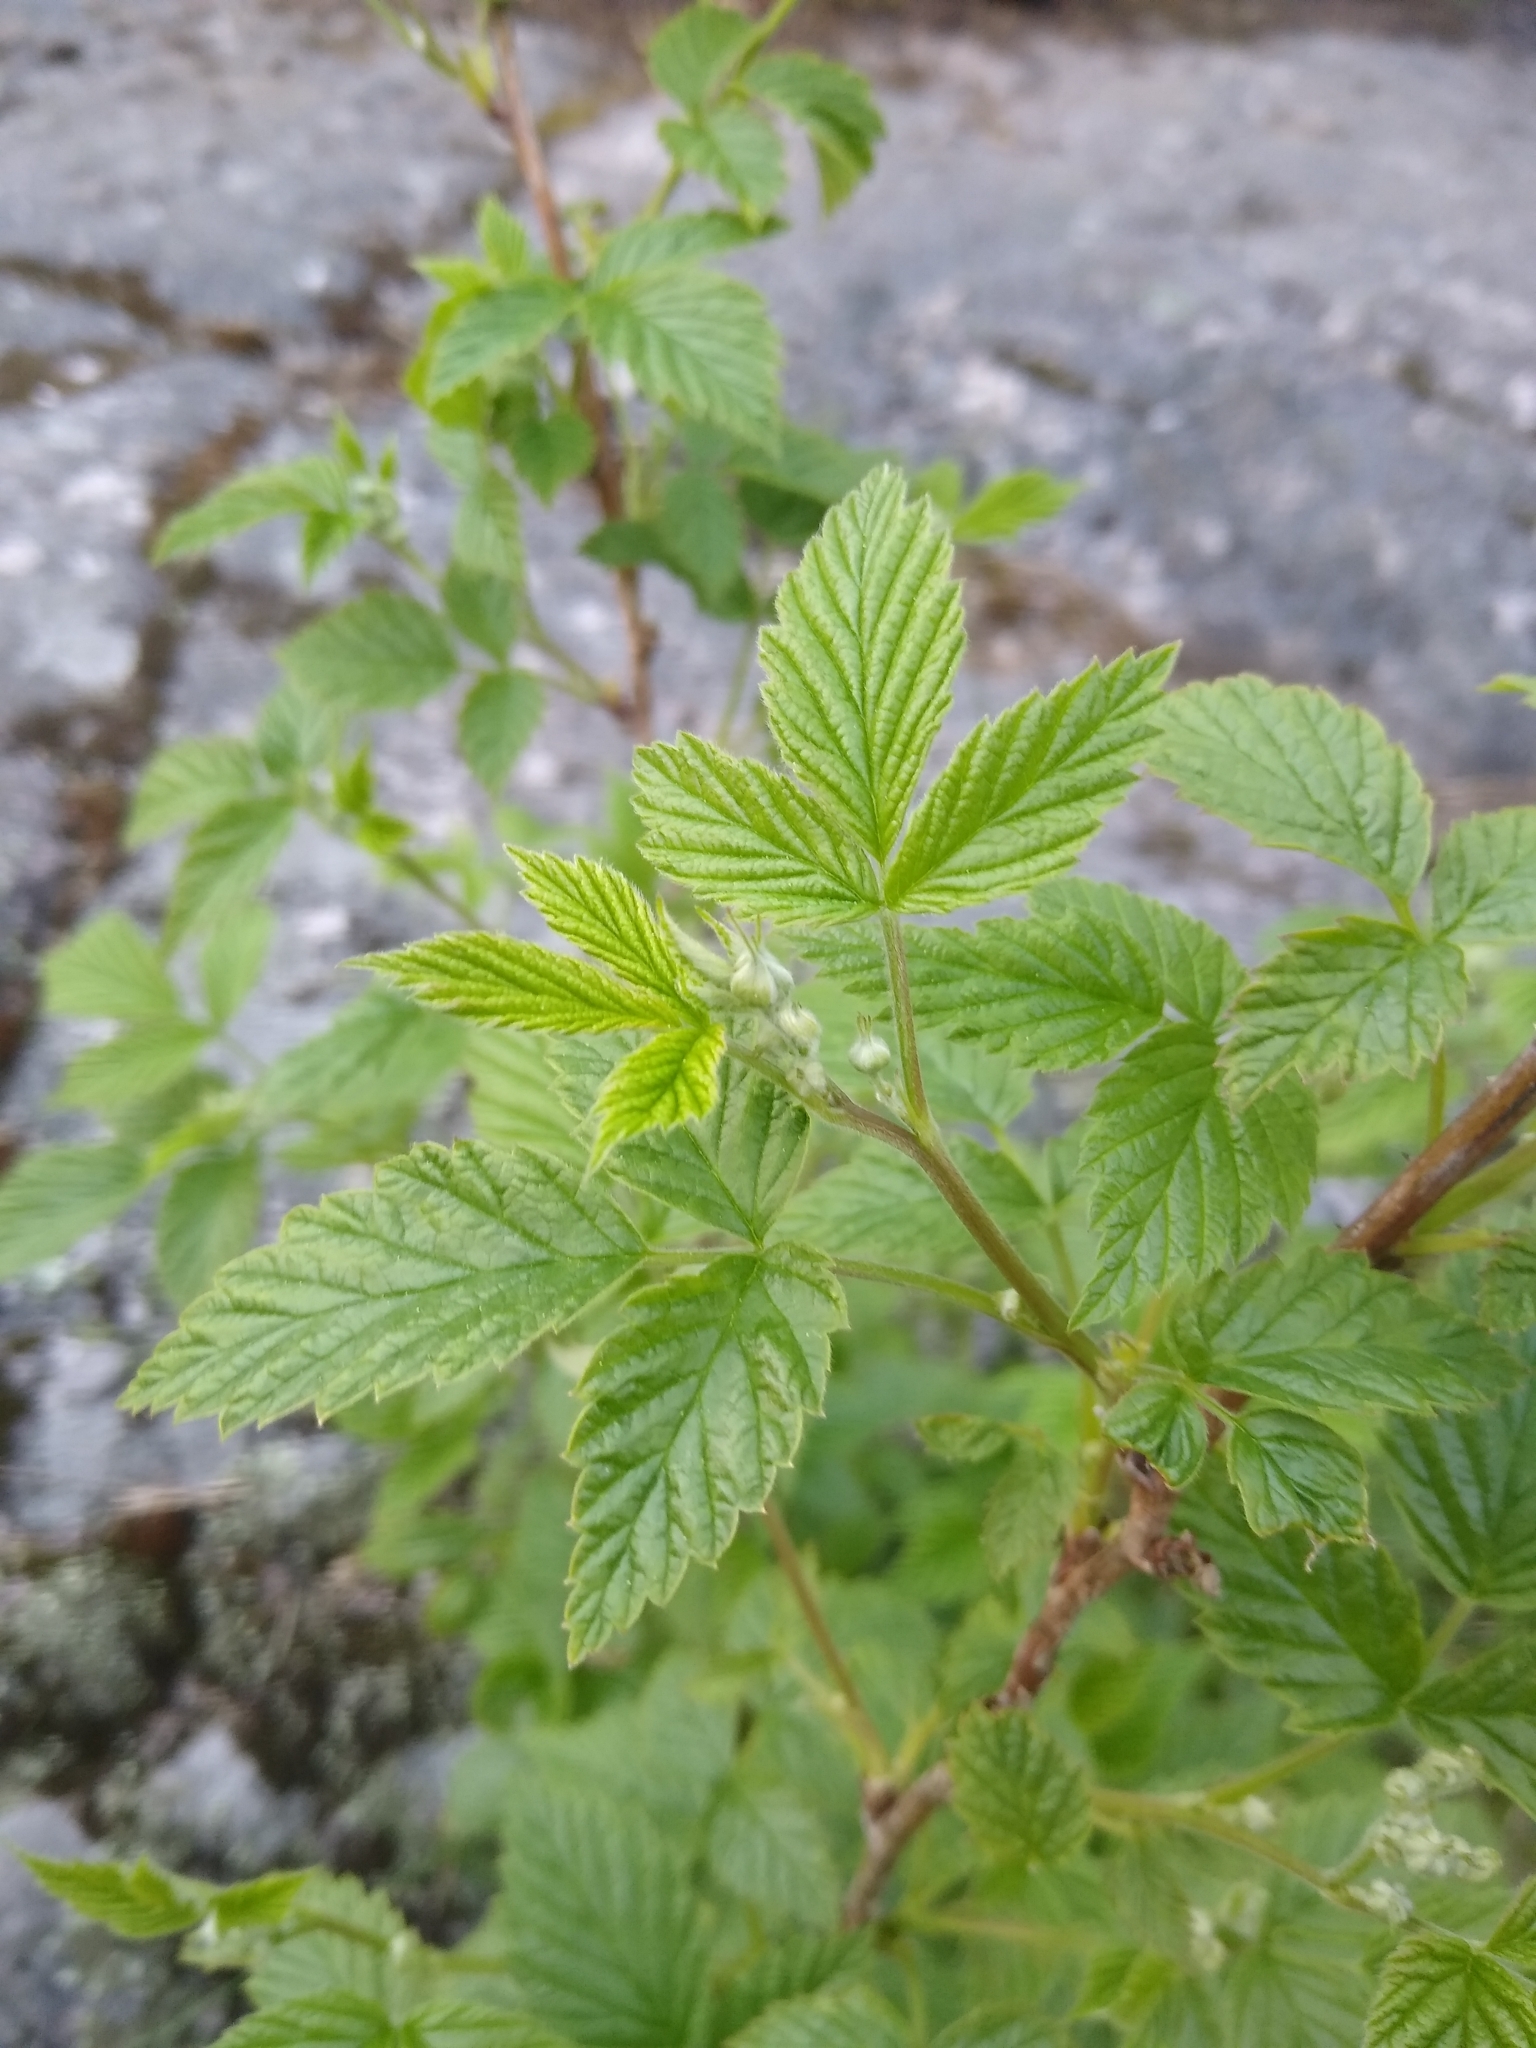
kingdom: Plantae
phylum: Tracheophyta
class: Magnoliopsida
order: Rosales
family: Rosaceae
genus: Rubus
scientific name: Rubus idaeus
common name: Raspberry
